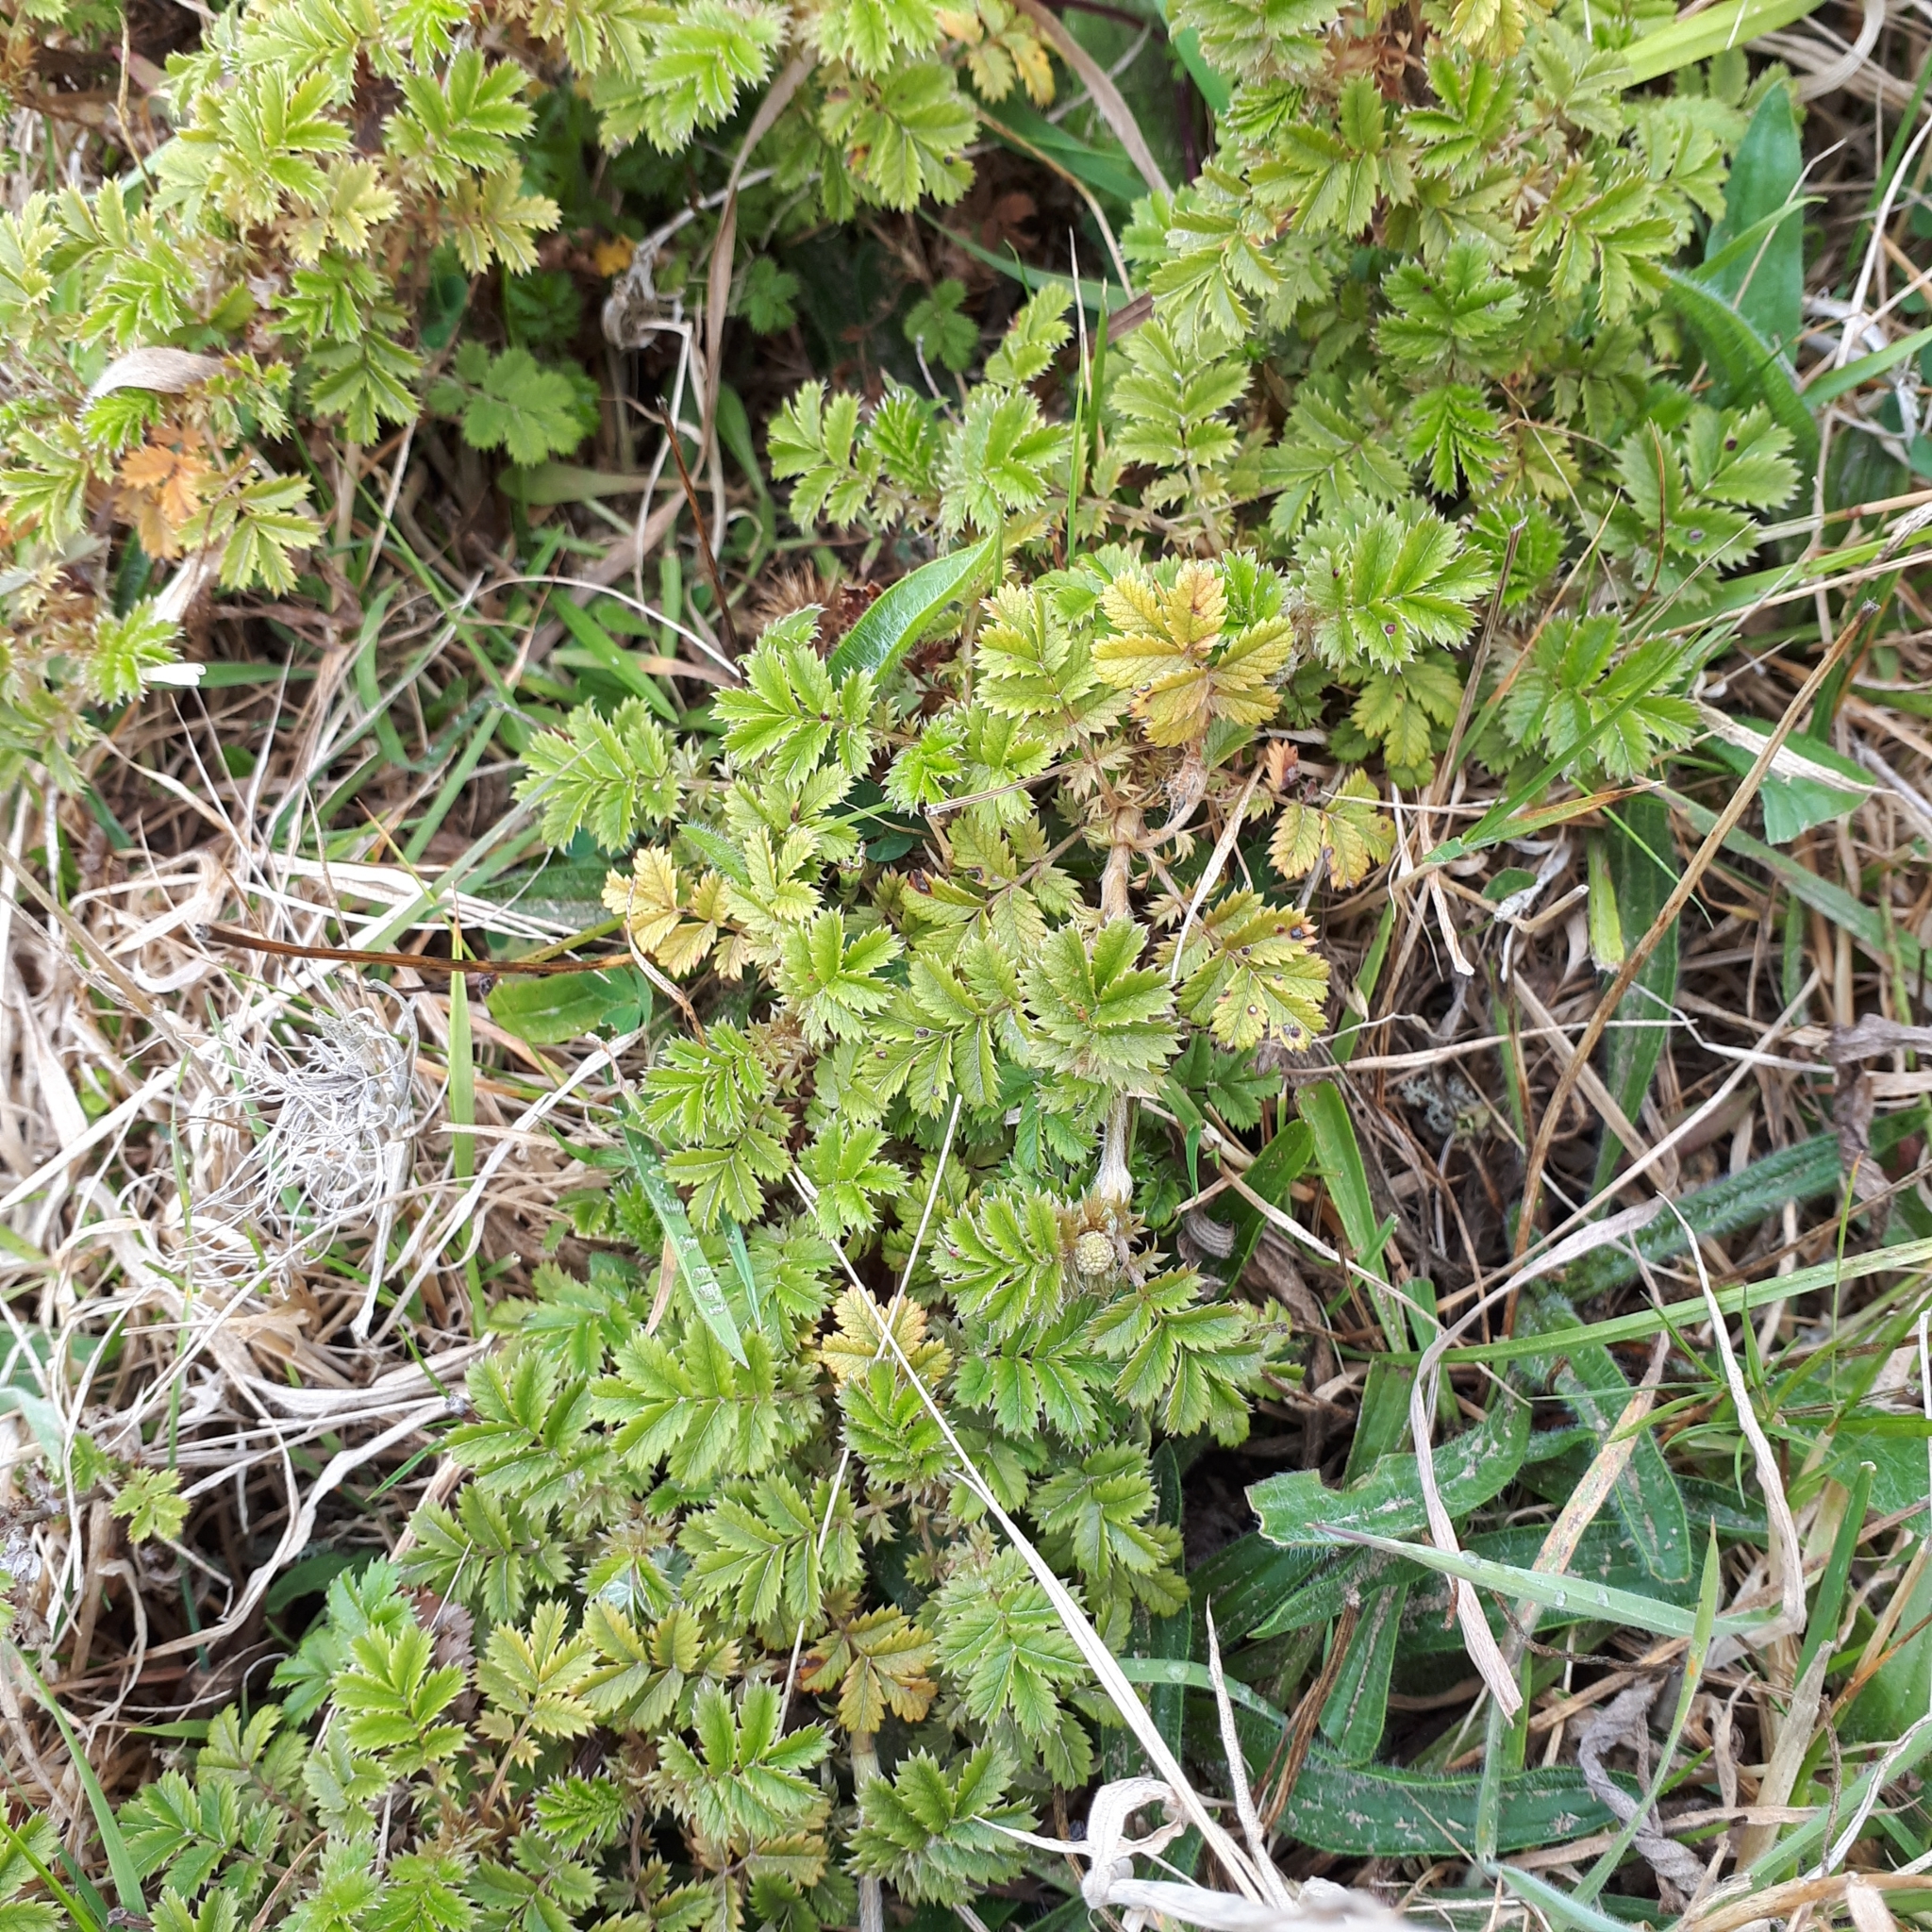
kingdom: Plantae
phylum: Tracheophyta
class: Magnoliopsida
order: Rosales
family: Rosaceae
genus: Acaena
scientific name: Acaena anserinifolia
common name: Bronze pirri-pirri-bur
